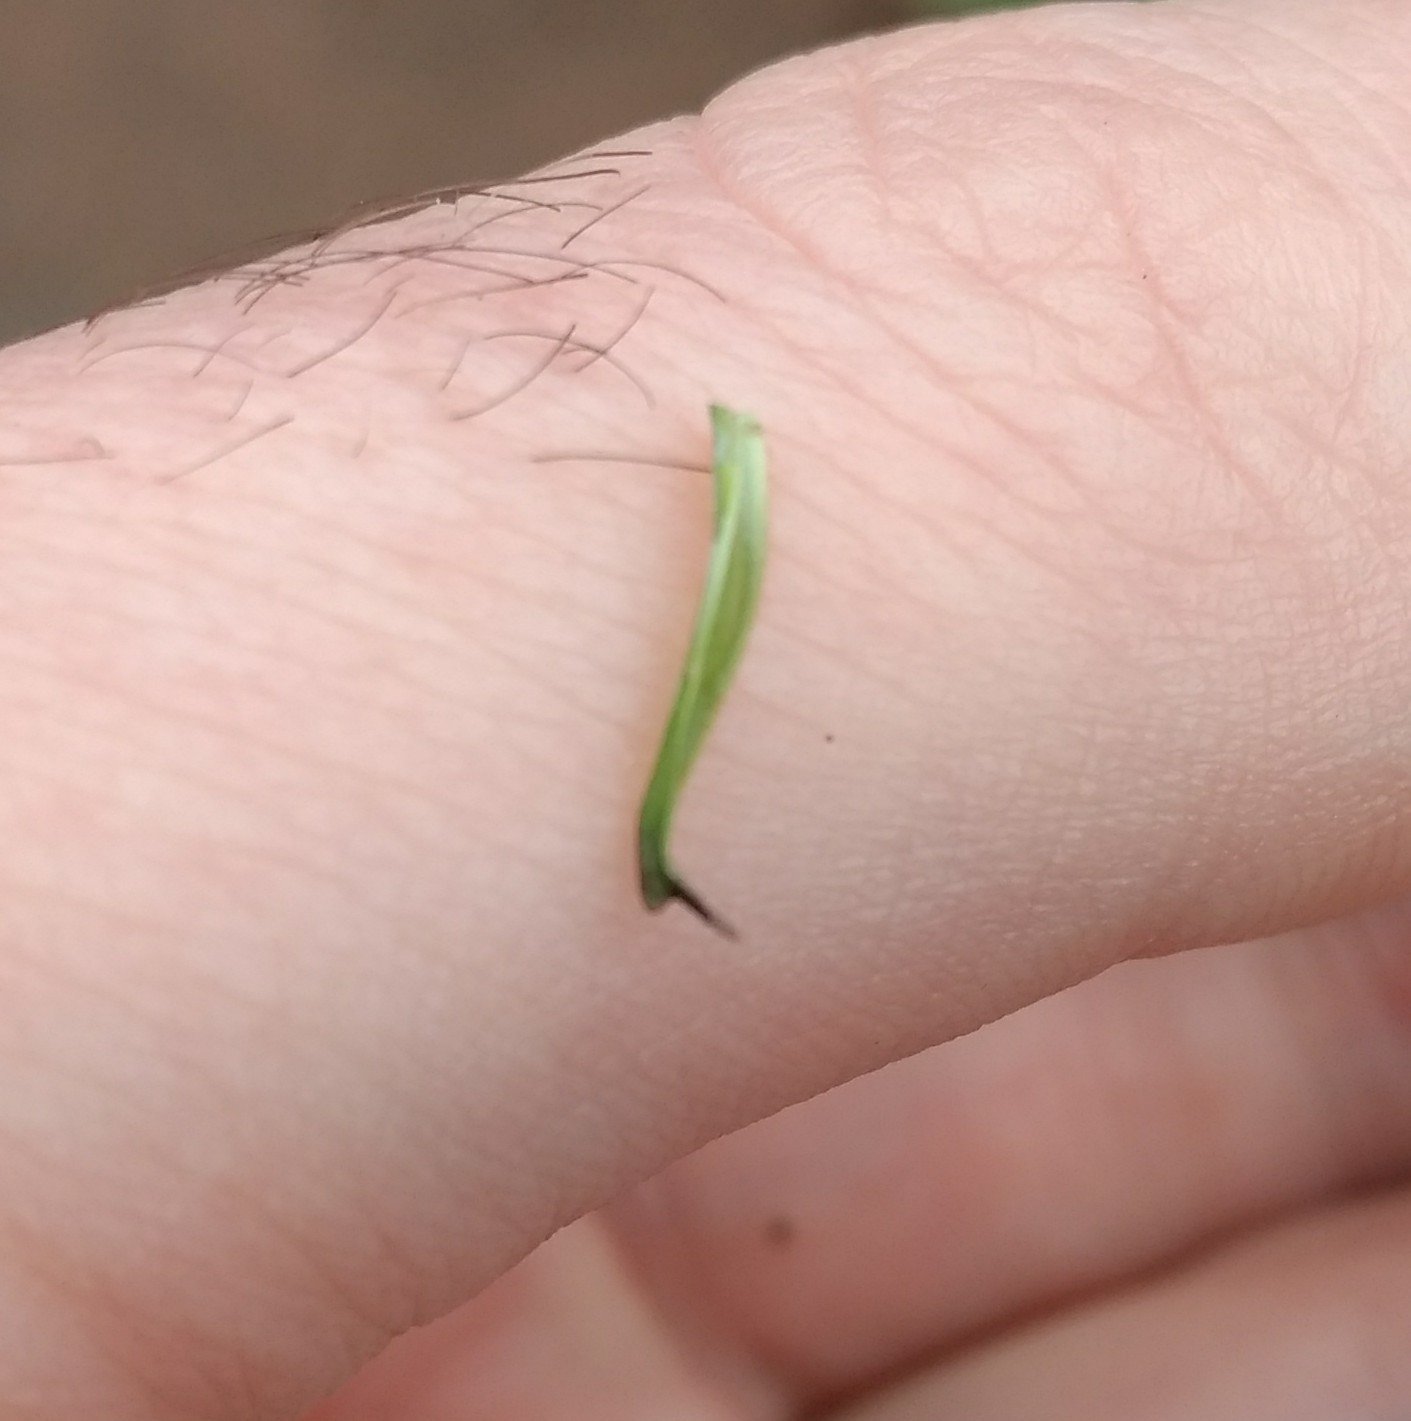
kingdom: Plantae
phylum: Tracheophyta
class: Magnoliopsida
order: Asterales
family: Asteraceae
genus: Taraxacum
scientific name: Taraxacum erythrospermum
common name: Rock dandelion
